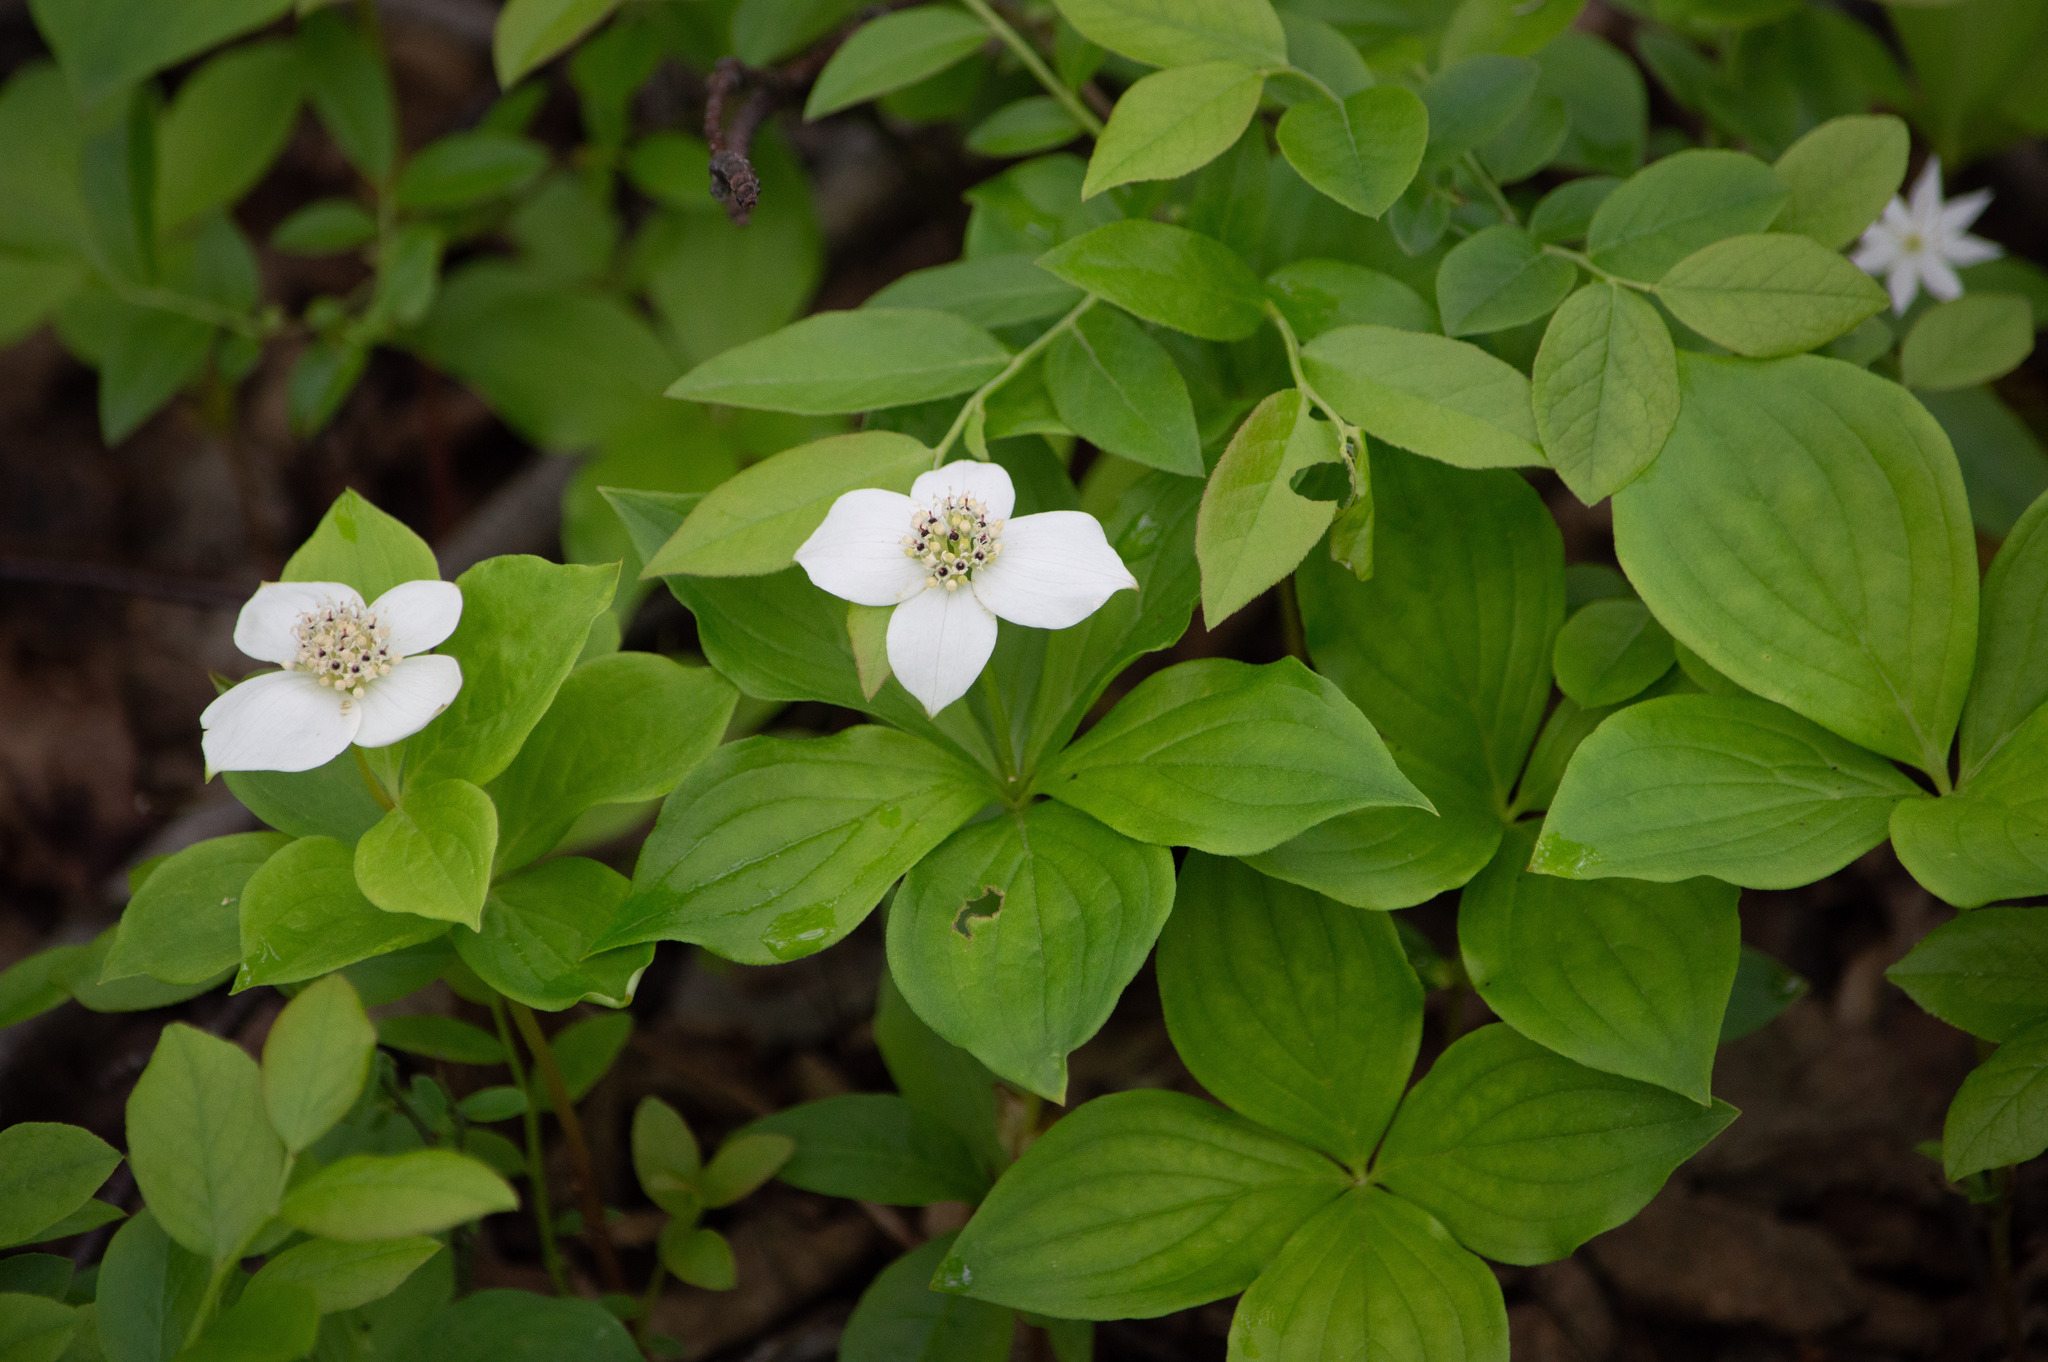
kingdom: Plantae
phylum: Tracheophyta
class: Magnoliopsida
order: Cornales
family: Cornaceae
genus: Cornus
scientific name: Cornus canadensis
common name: Creeping dogwood
